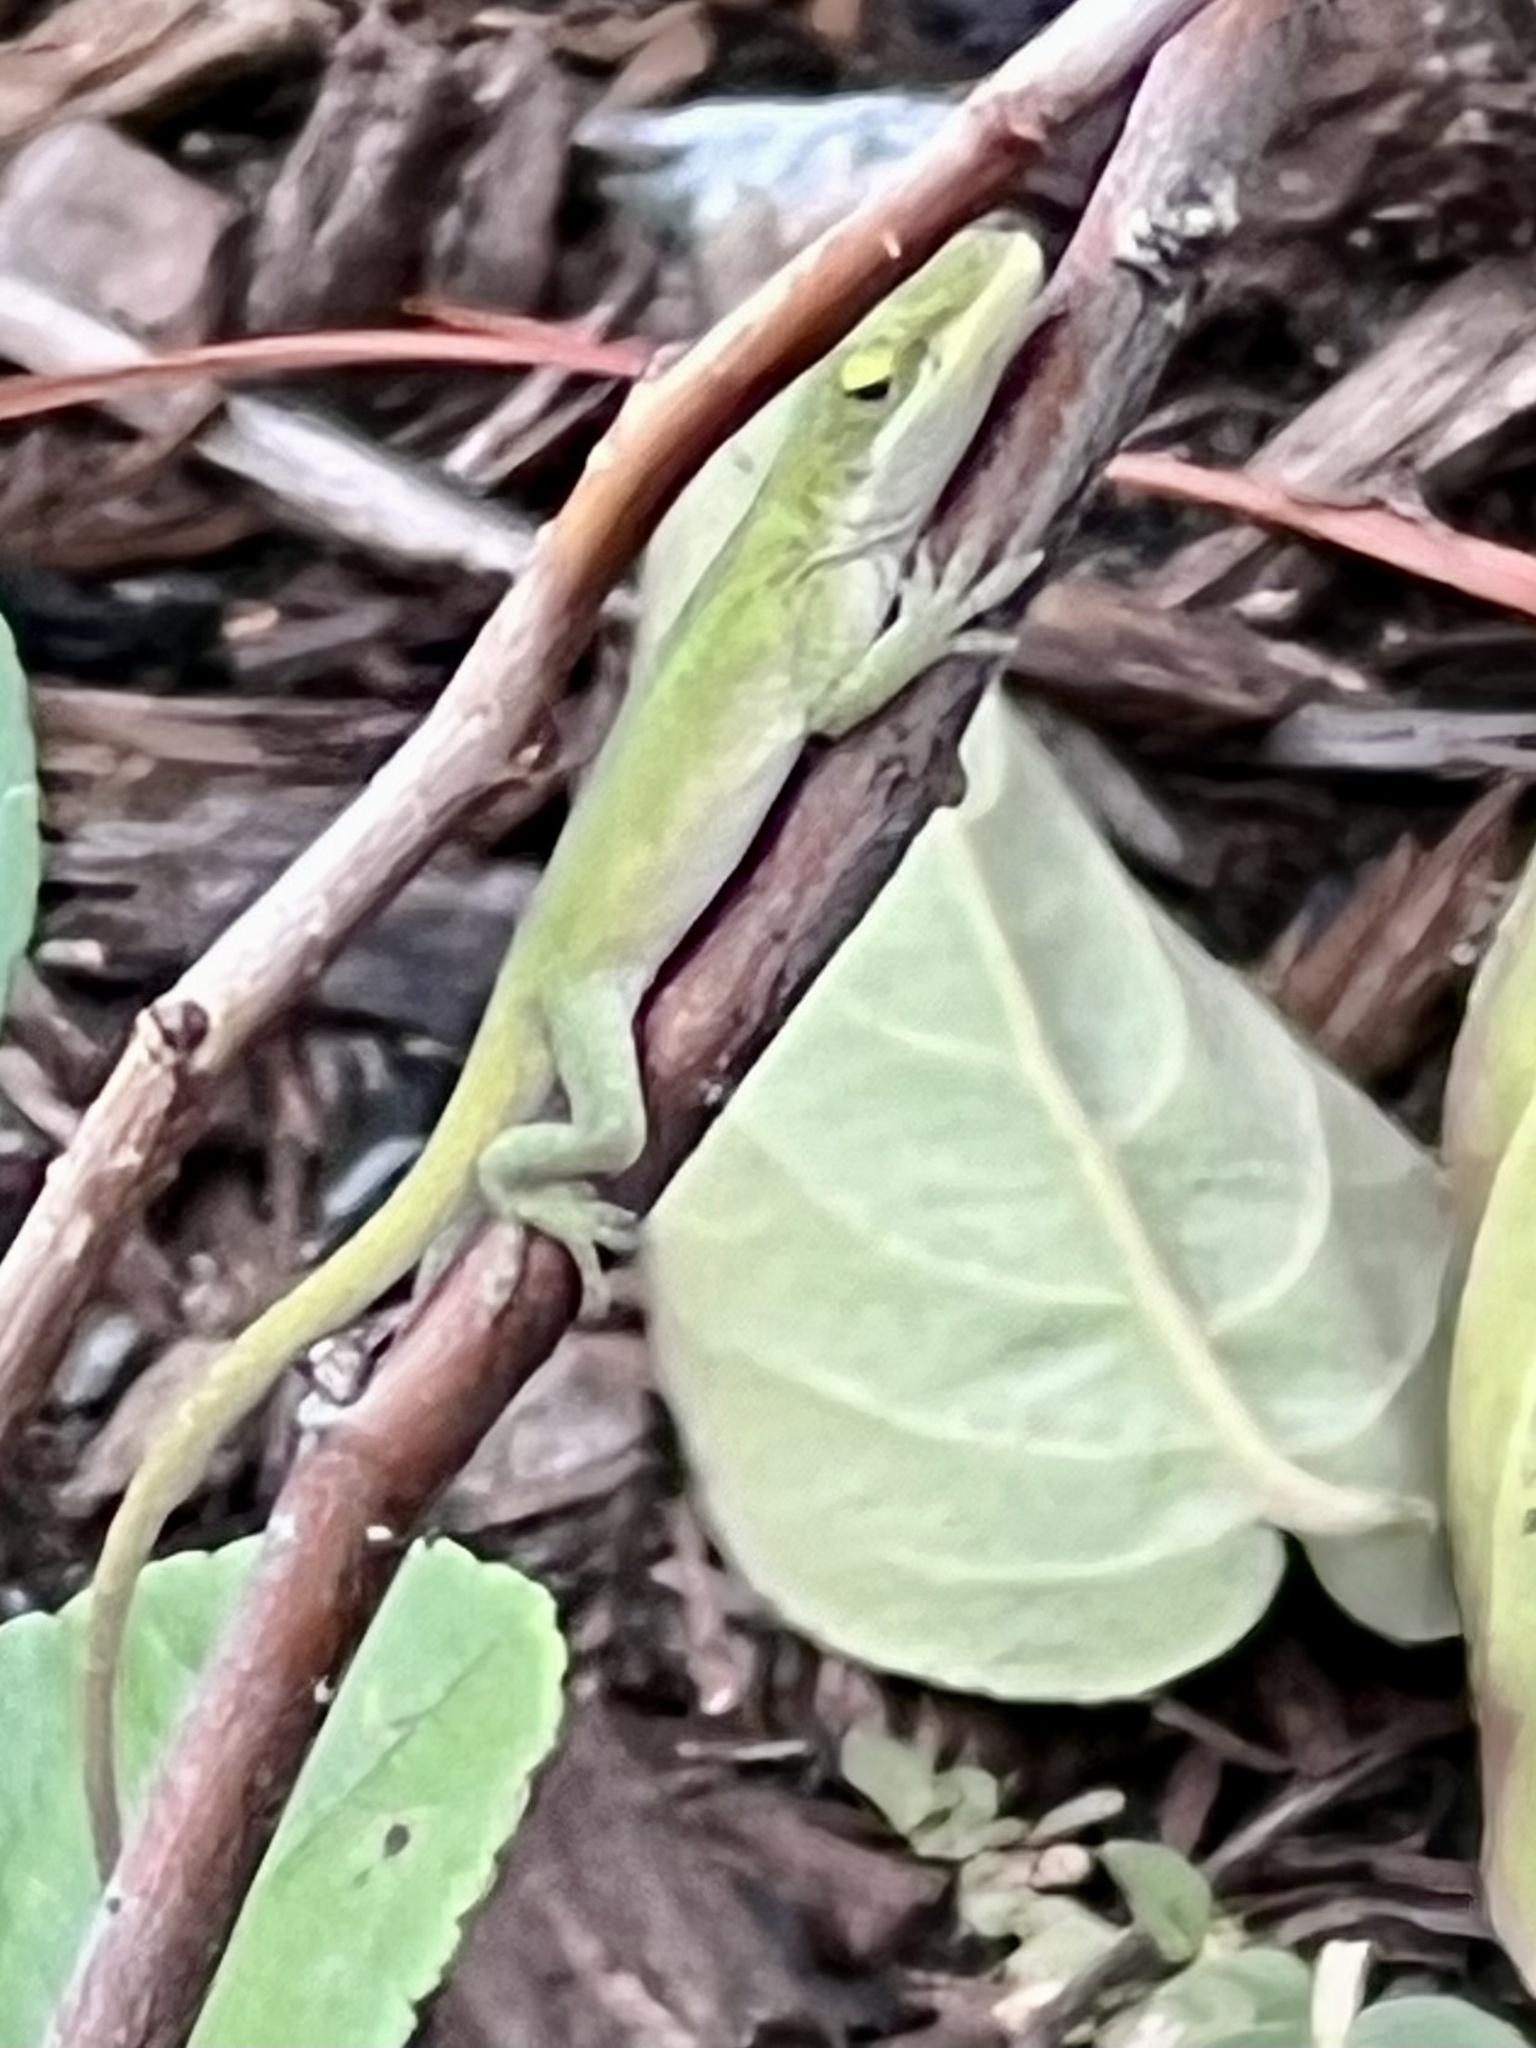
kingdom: Animalia
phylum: Chordata
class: Squamata
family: Dactyloidae
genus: Anolis
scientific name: Anolis carolinensis
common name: Green anole
